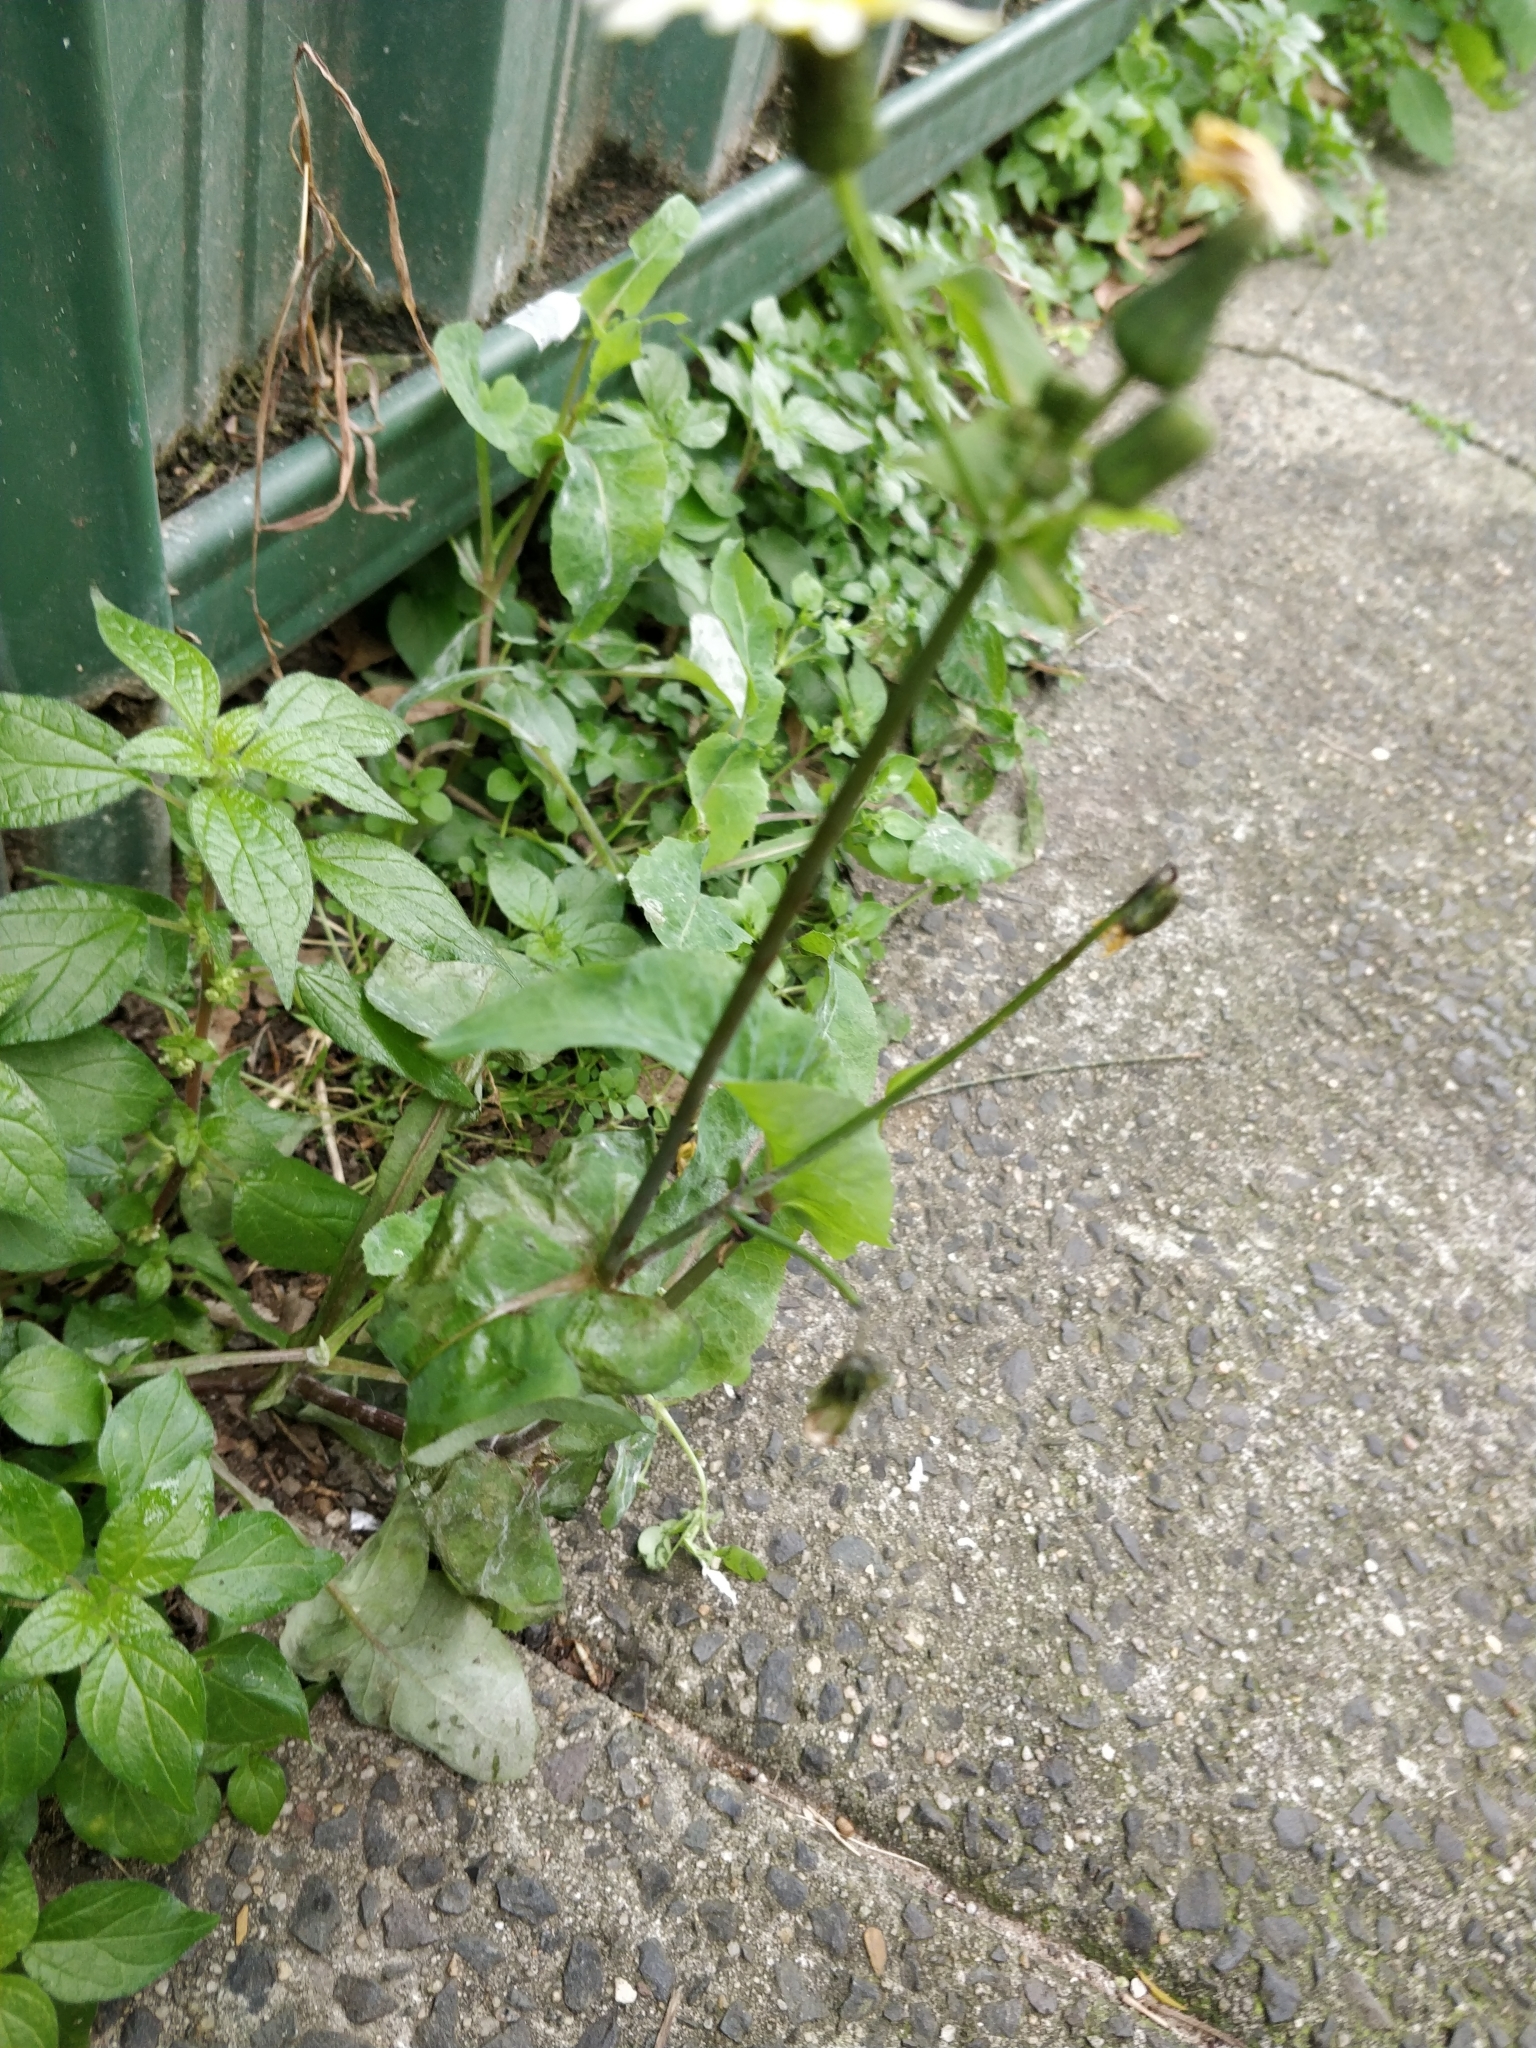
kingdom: Plantae
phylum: Tracheophyta
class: Magnoliopsida
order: Asterales
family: Asteraceae
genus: Sonchus
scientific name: Sonchus oleraceus
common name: Common sowthistle
